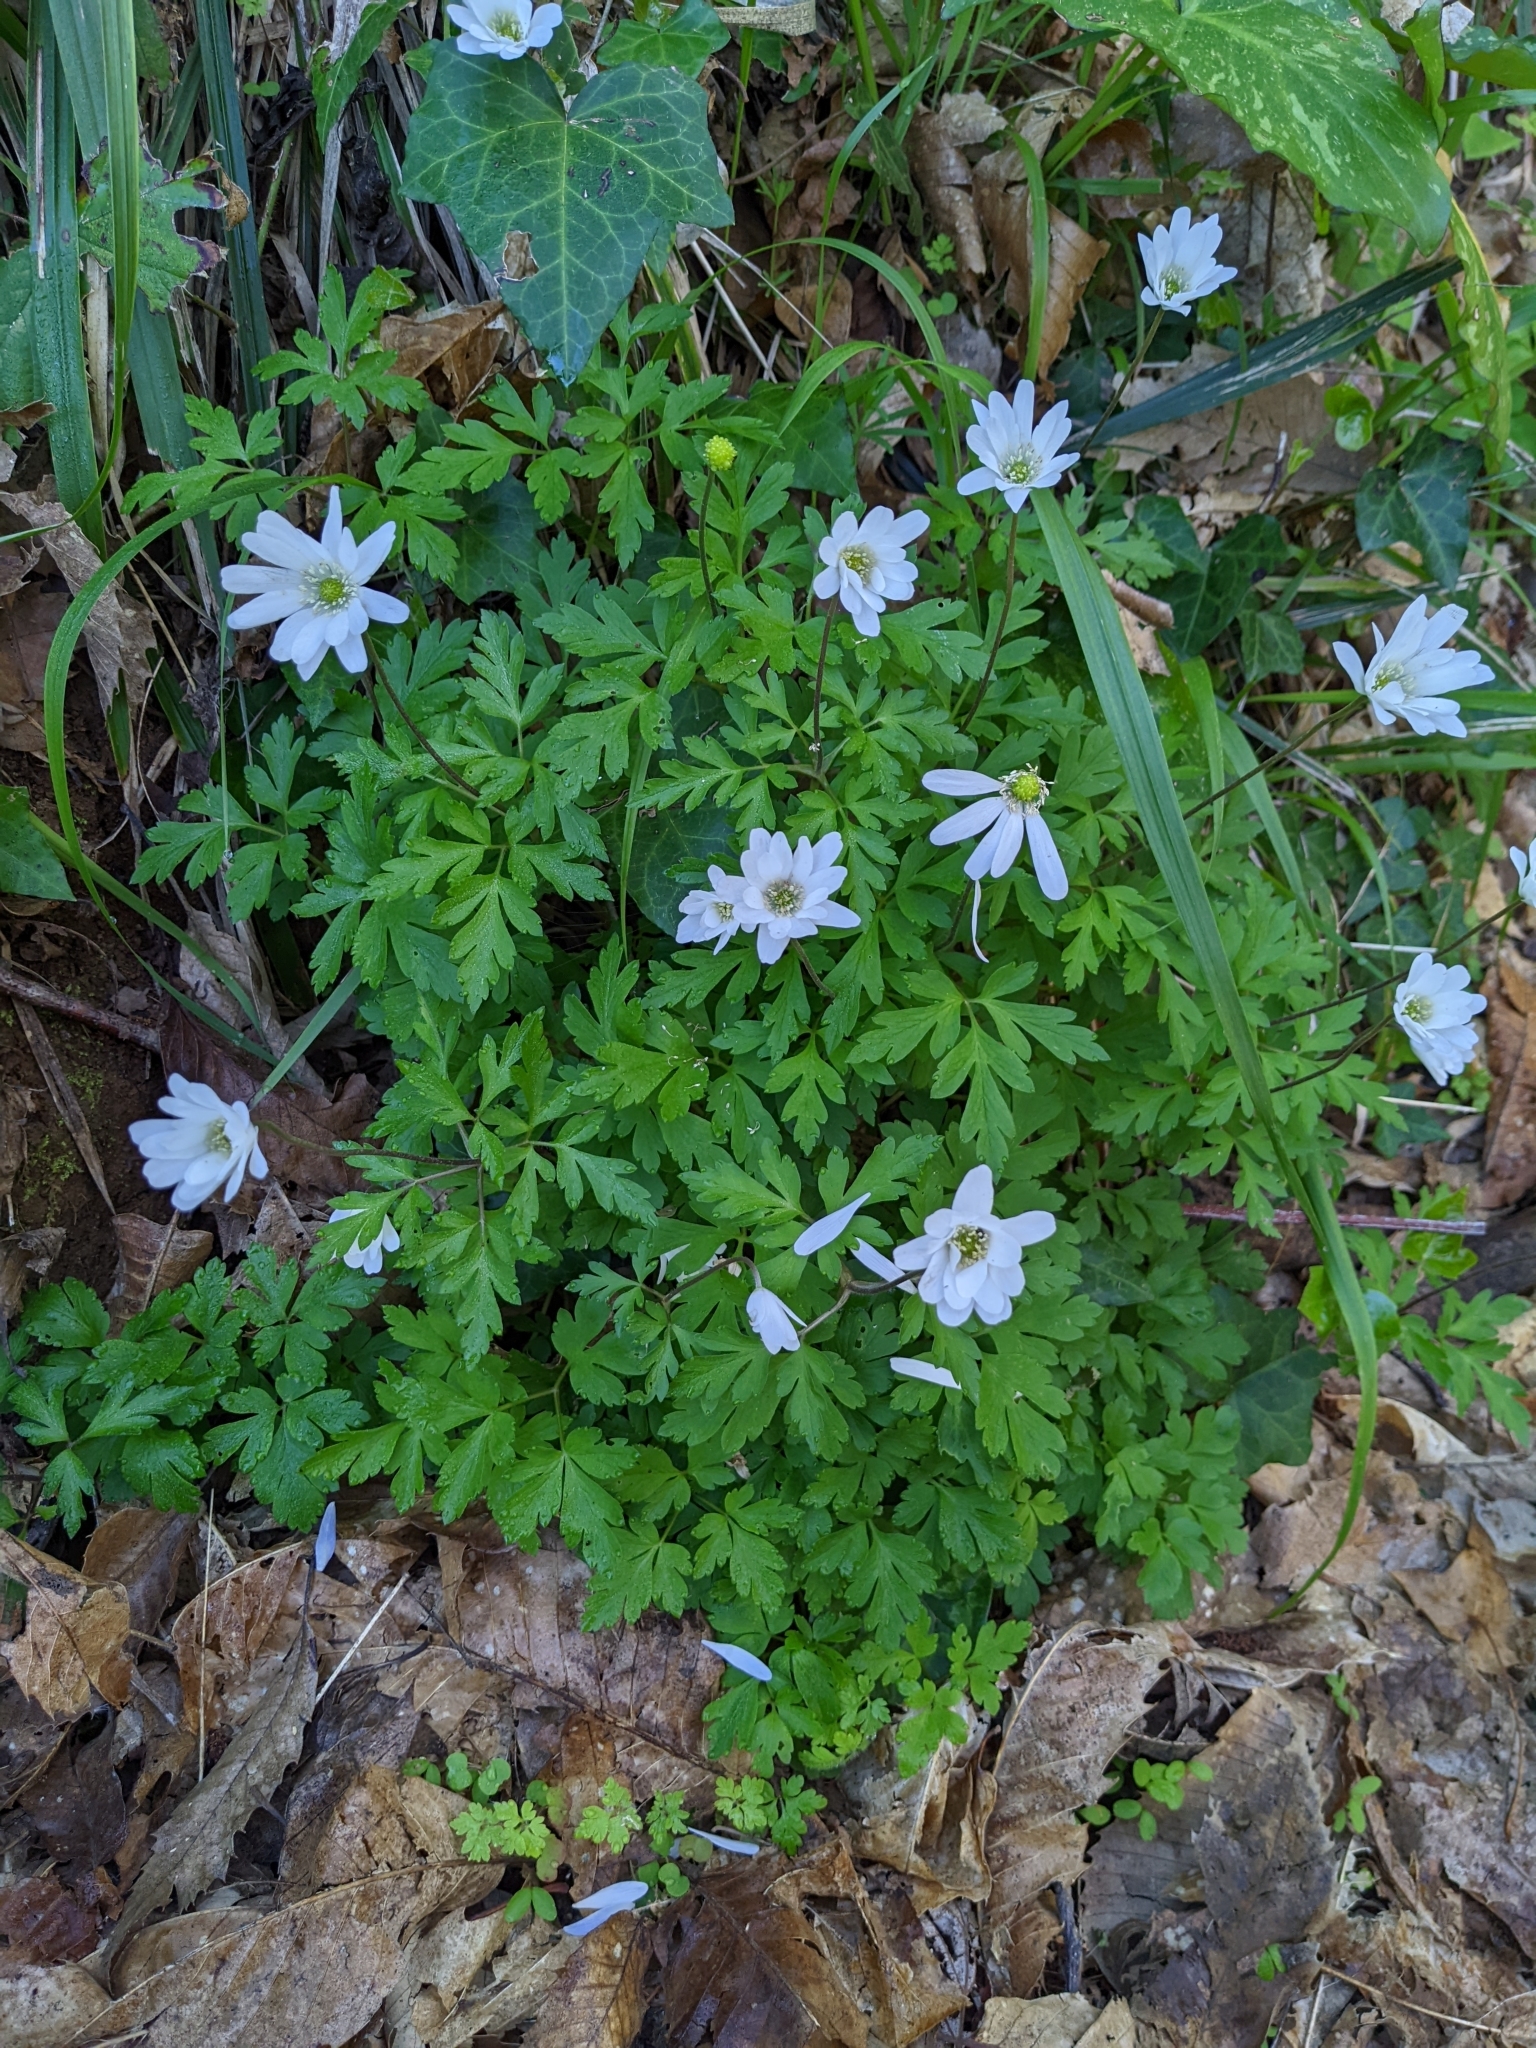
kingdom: Plantae
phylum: Tracheophyta
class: Magnoliopsida
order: Ranunculales
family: Ranunculaceae
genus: Anemone
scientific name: Anemone apennina
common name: Blue anemone
